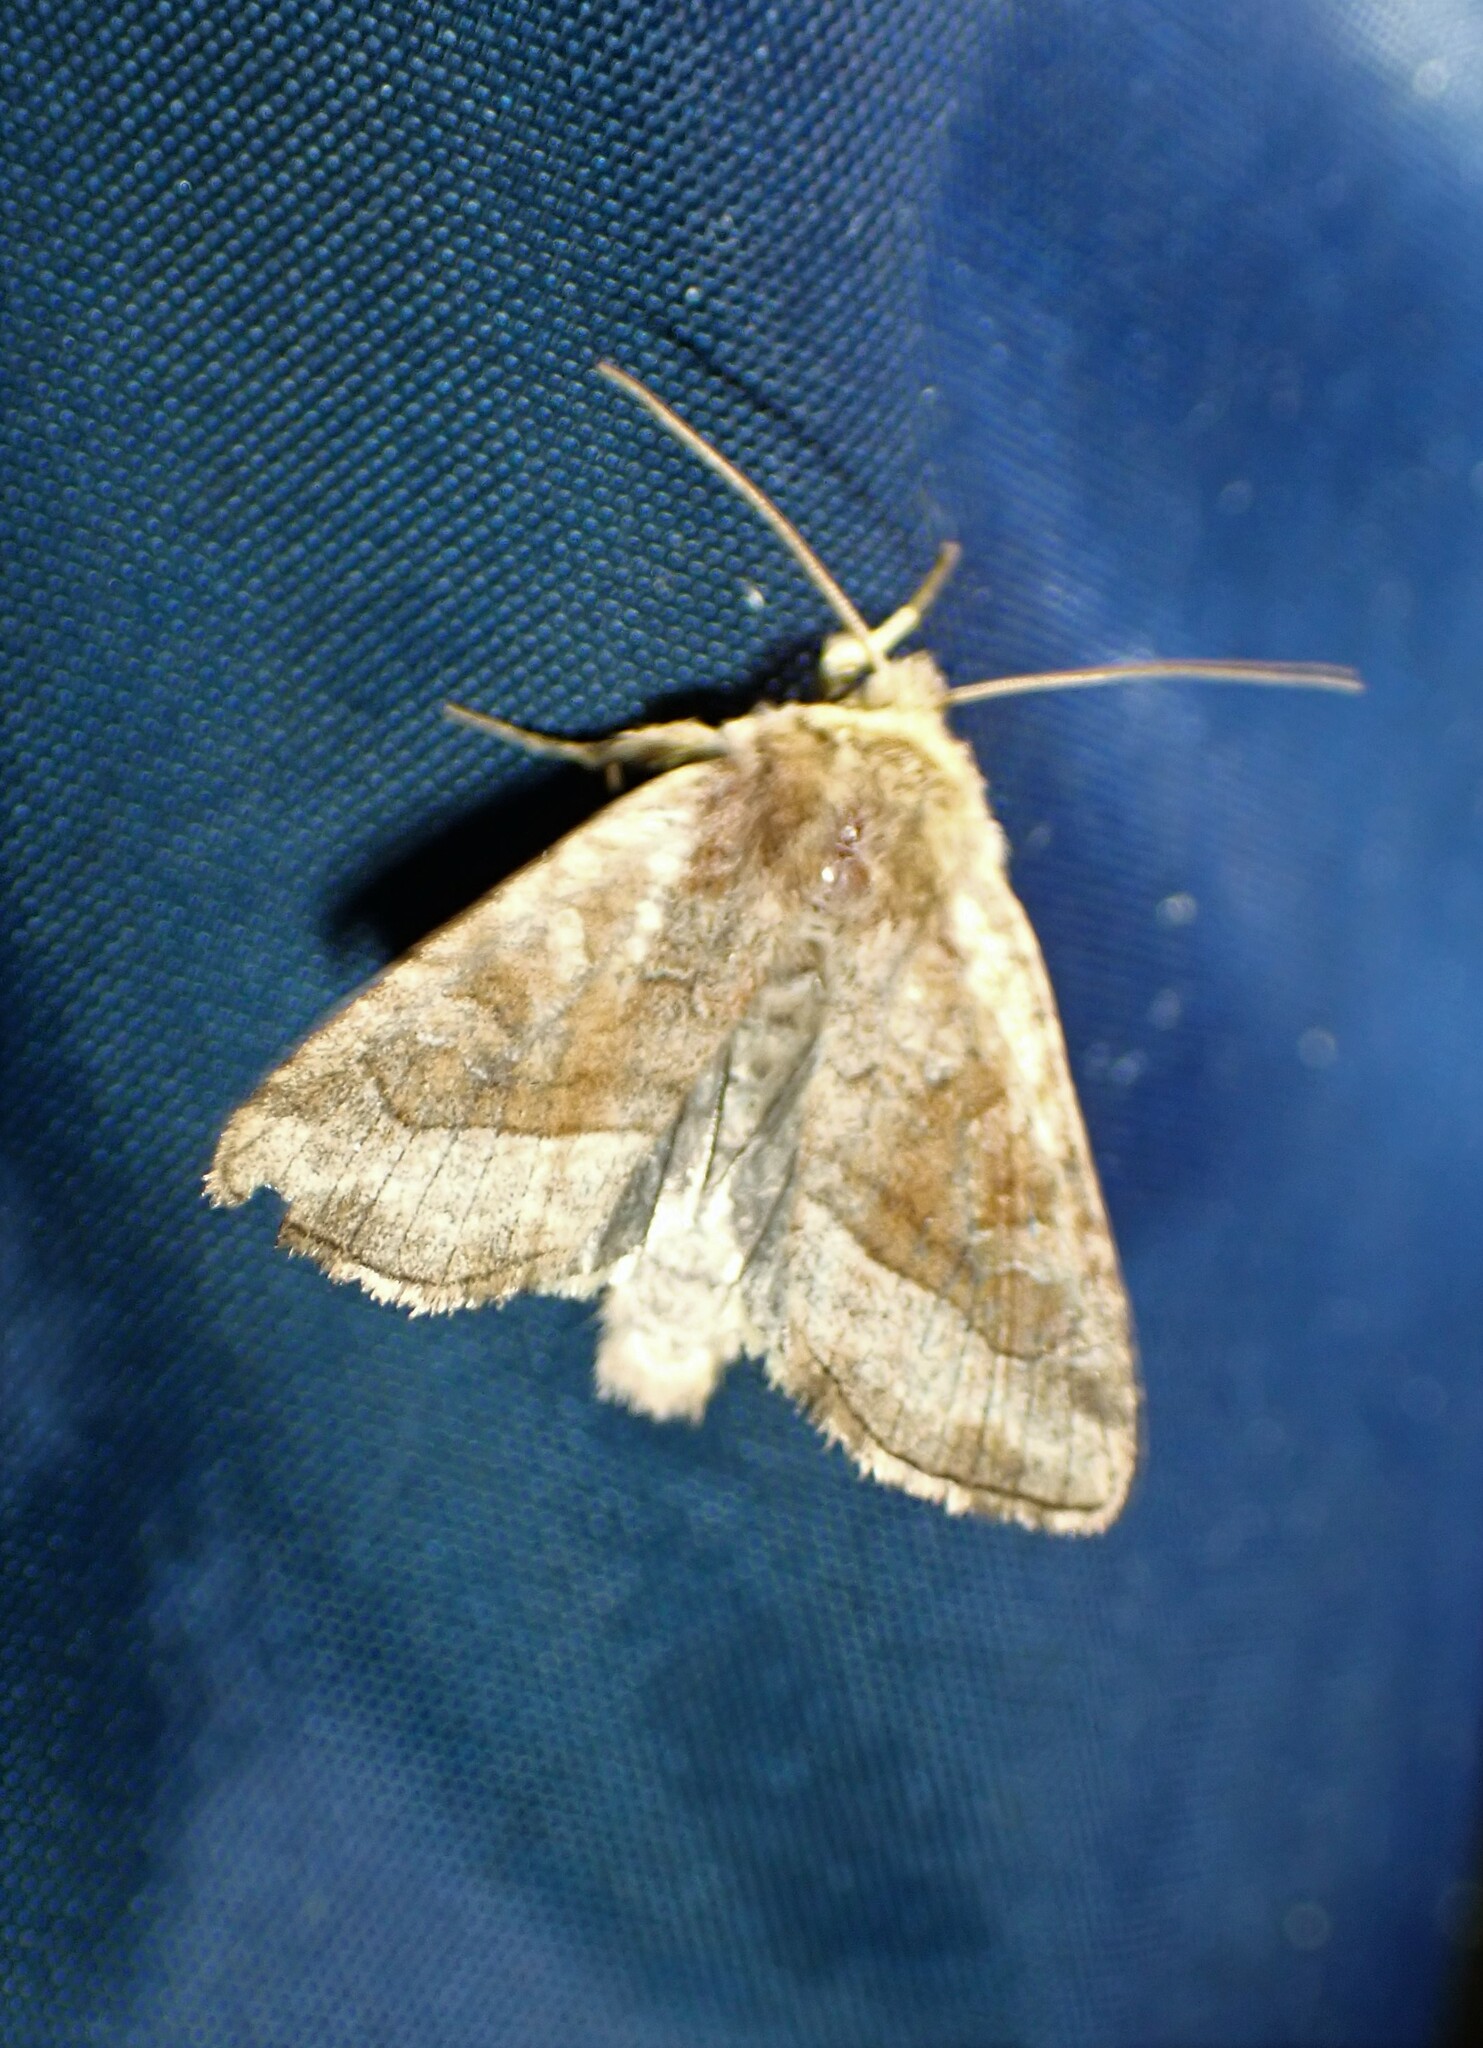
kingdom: Animalia
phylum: Arthropoda
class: Insecta
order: Lepidoptera
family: Noctuidae
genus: Lacinipolia
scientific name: Lacinipolia lorea
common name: Bridled arches moth
